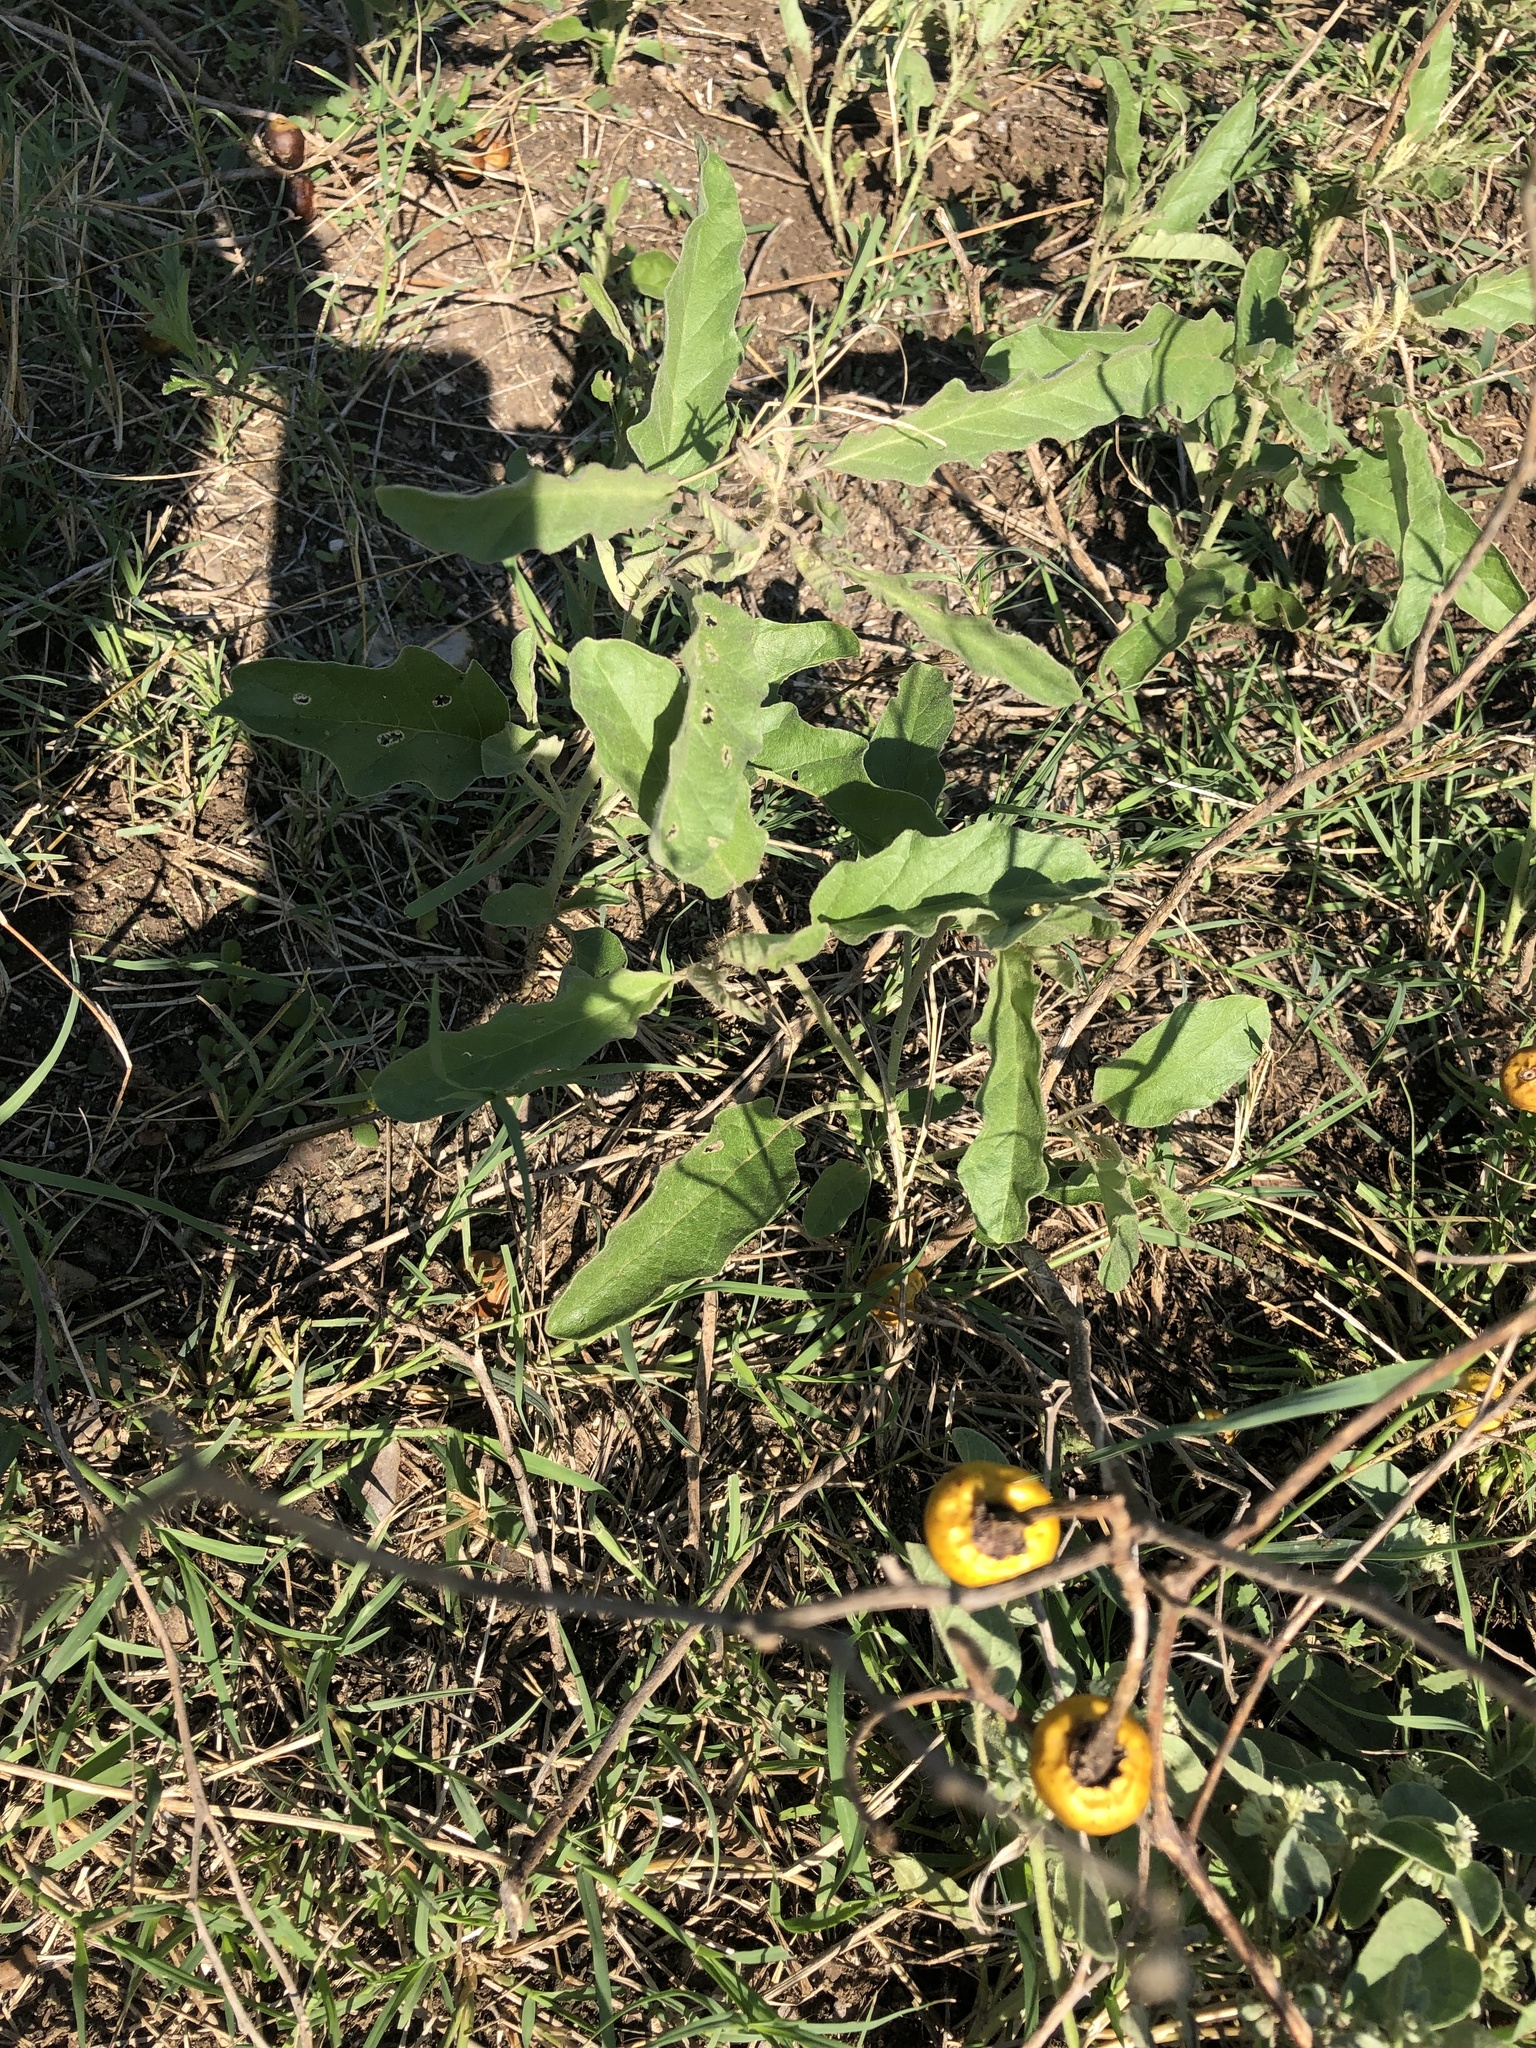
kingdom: Plantae
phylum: Tracheophyta
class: Magnoliopsida
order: Solanales
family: Solanaceae
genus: Solanum
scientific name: Solanum elaeagnifolium
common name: Silverleaf nightshade
